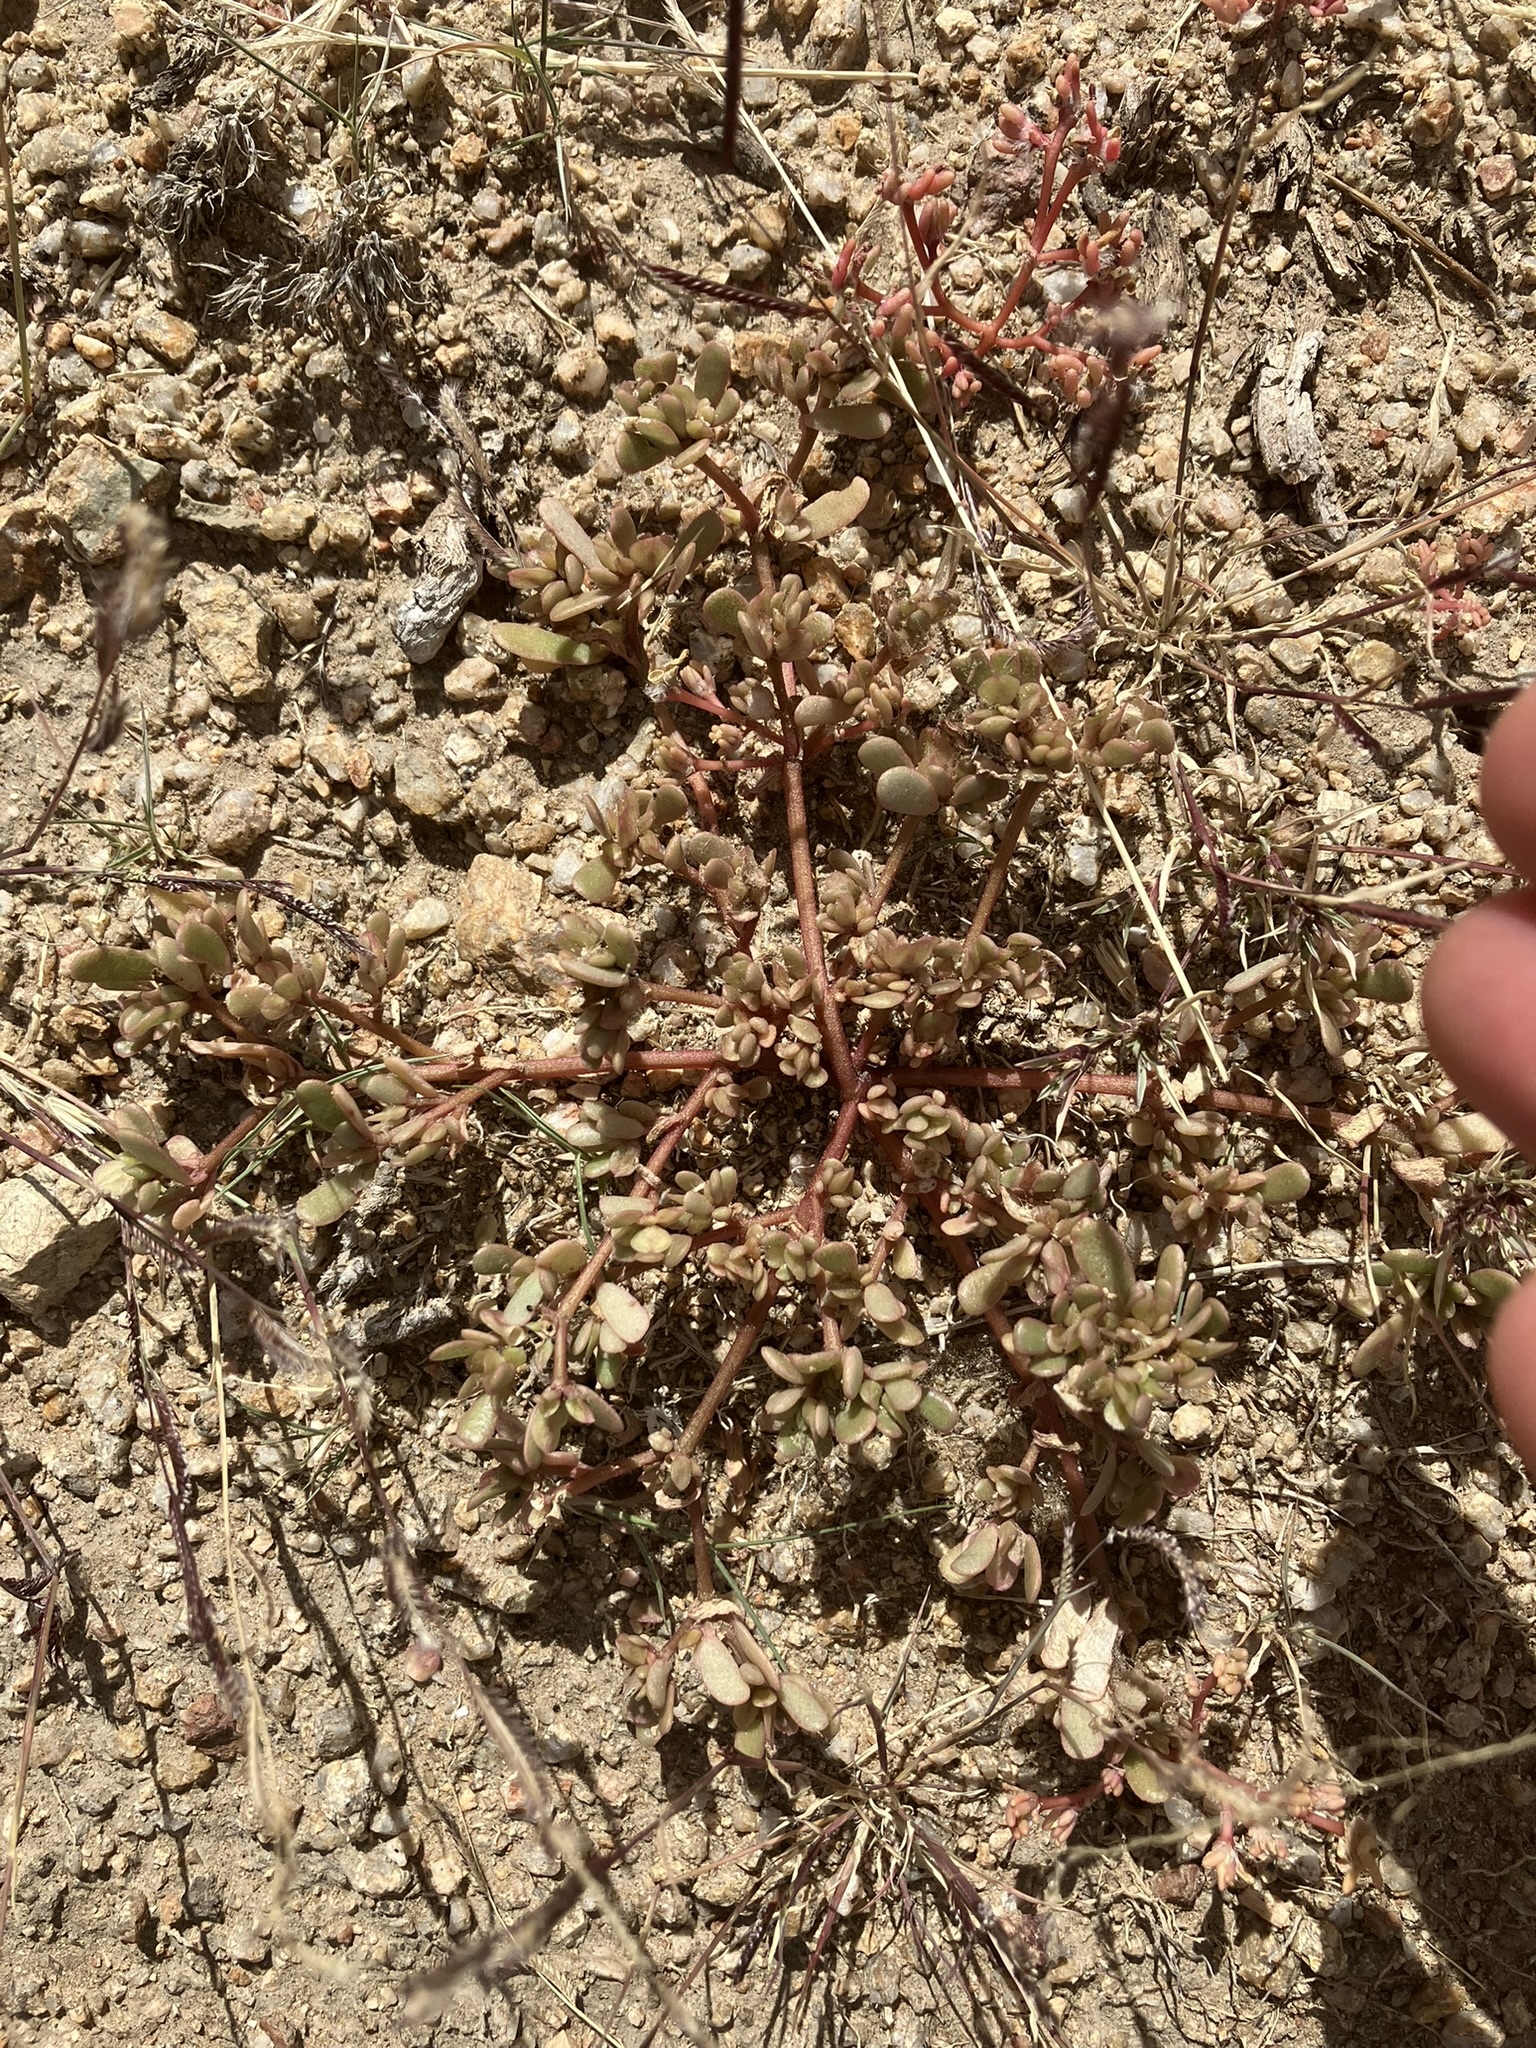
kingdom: Plantae
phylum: Tracheophyta
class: Magnoliopsida
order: Caryophyllales
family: Portulacaceae
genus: Portulaca
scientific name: Portulaca halimoides
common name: Silk cotton purslane
